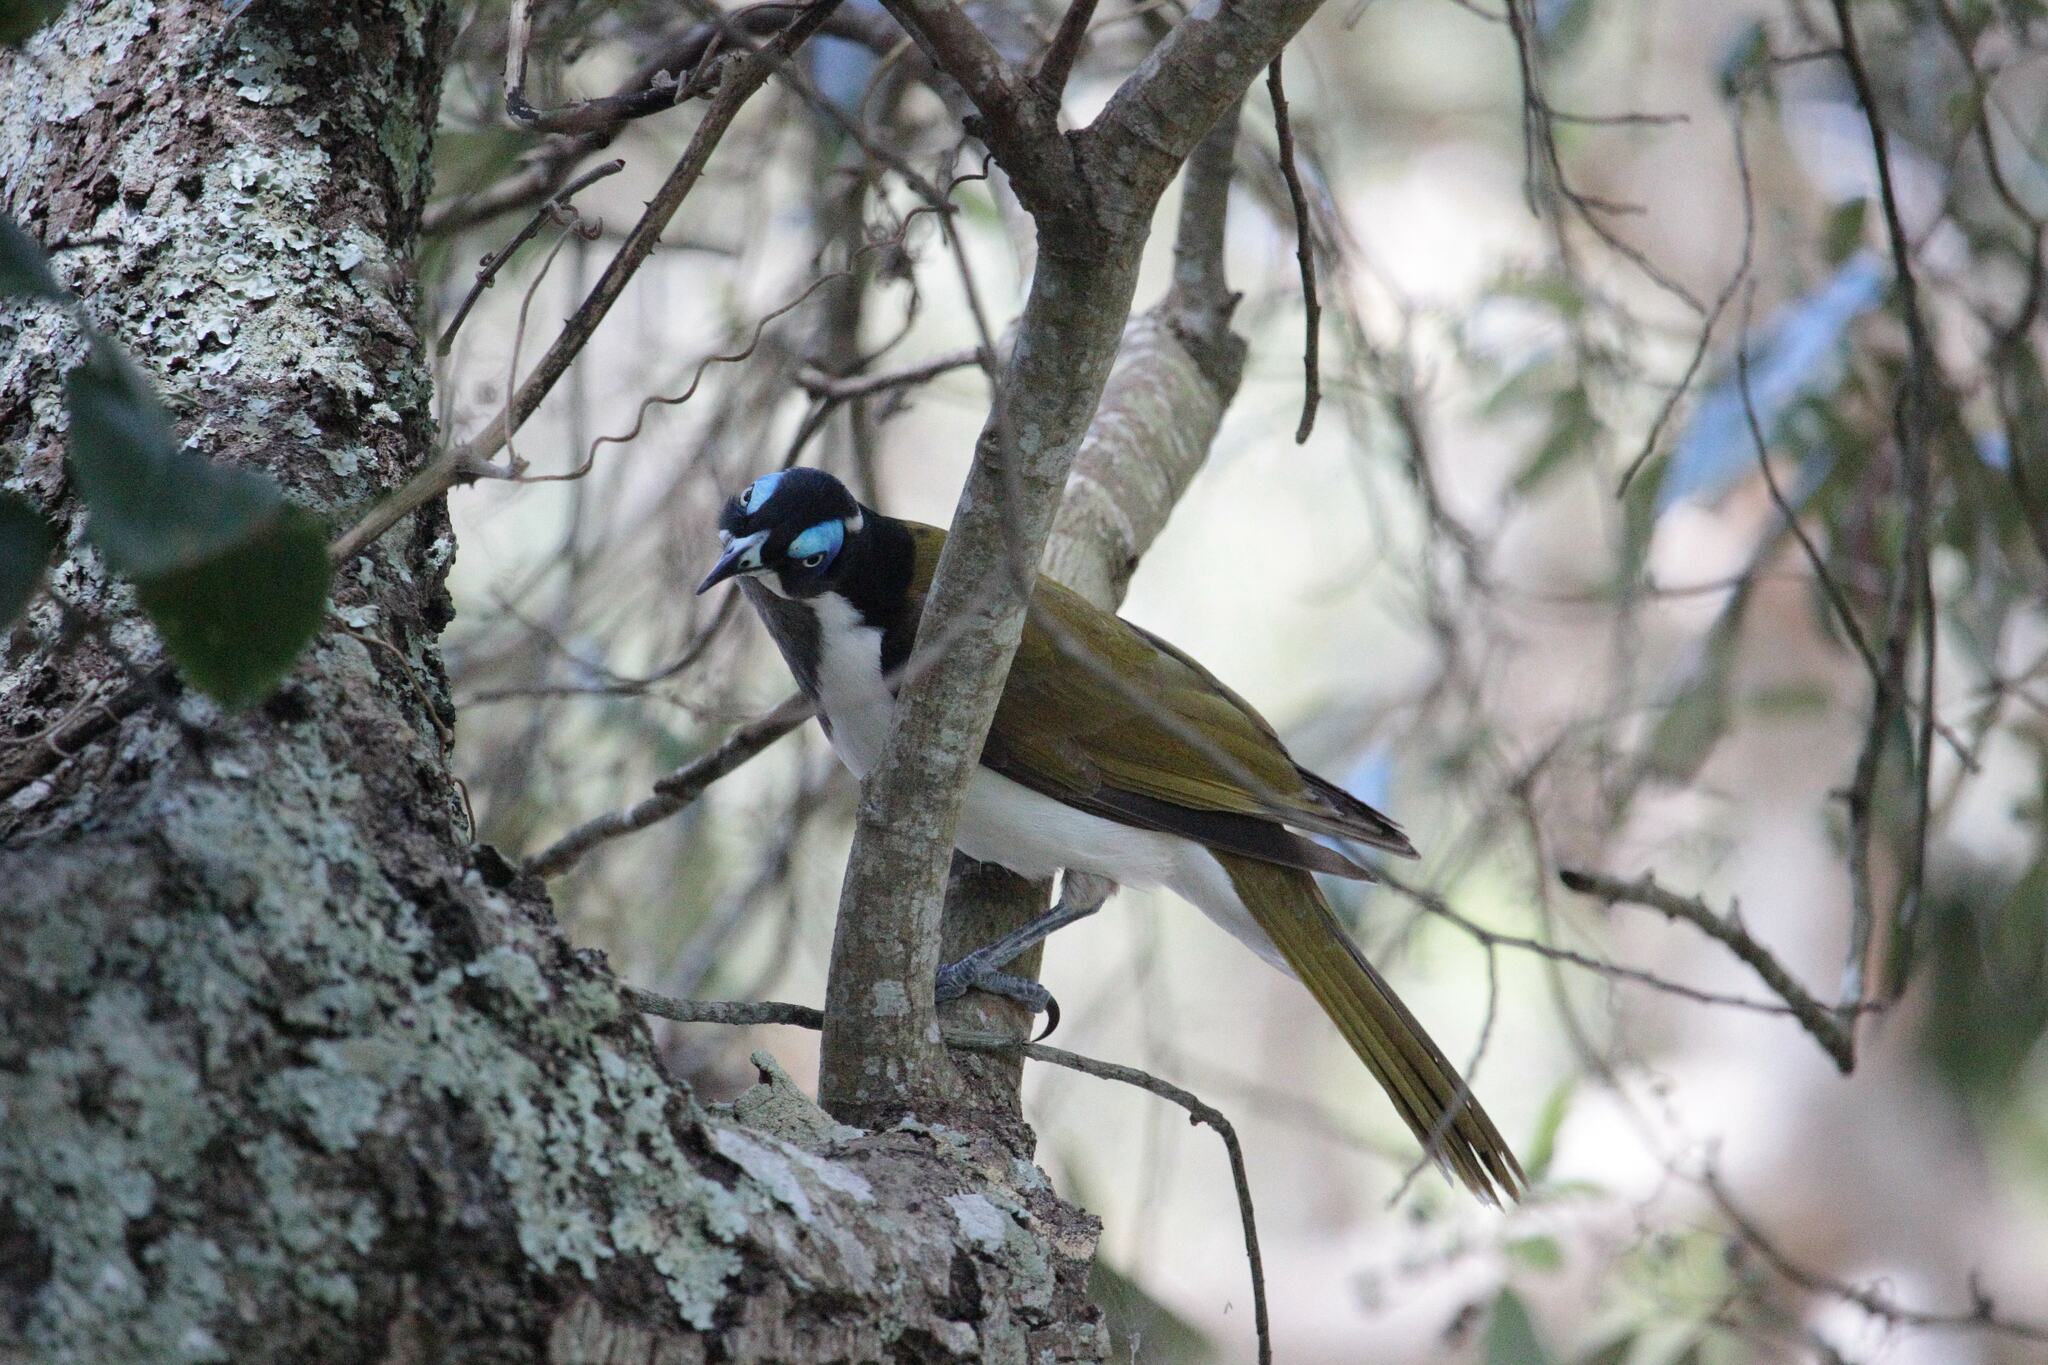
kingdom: Animalia
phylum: Chordata
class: Aves
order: Passeriformes
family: Meliphagidae
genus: Entomyzon
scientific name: Entomyzon cyanotis
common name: Blue-faced honeyeater
